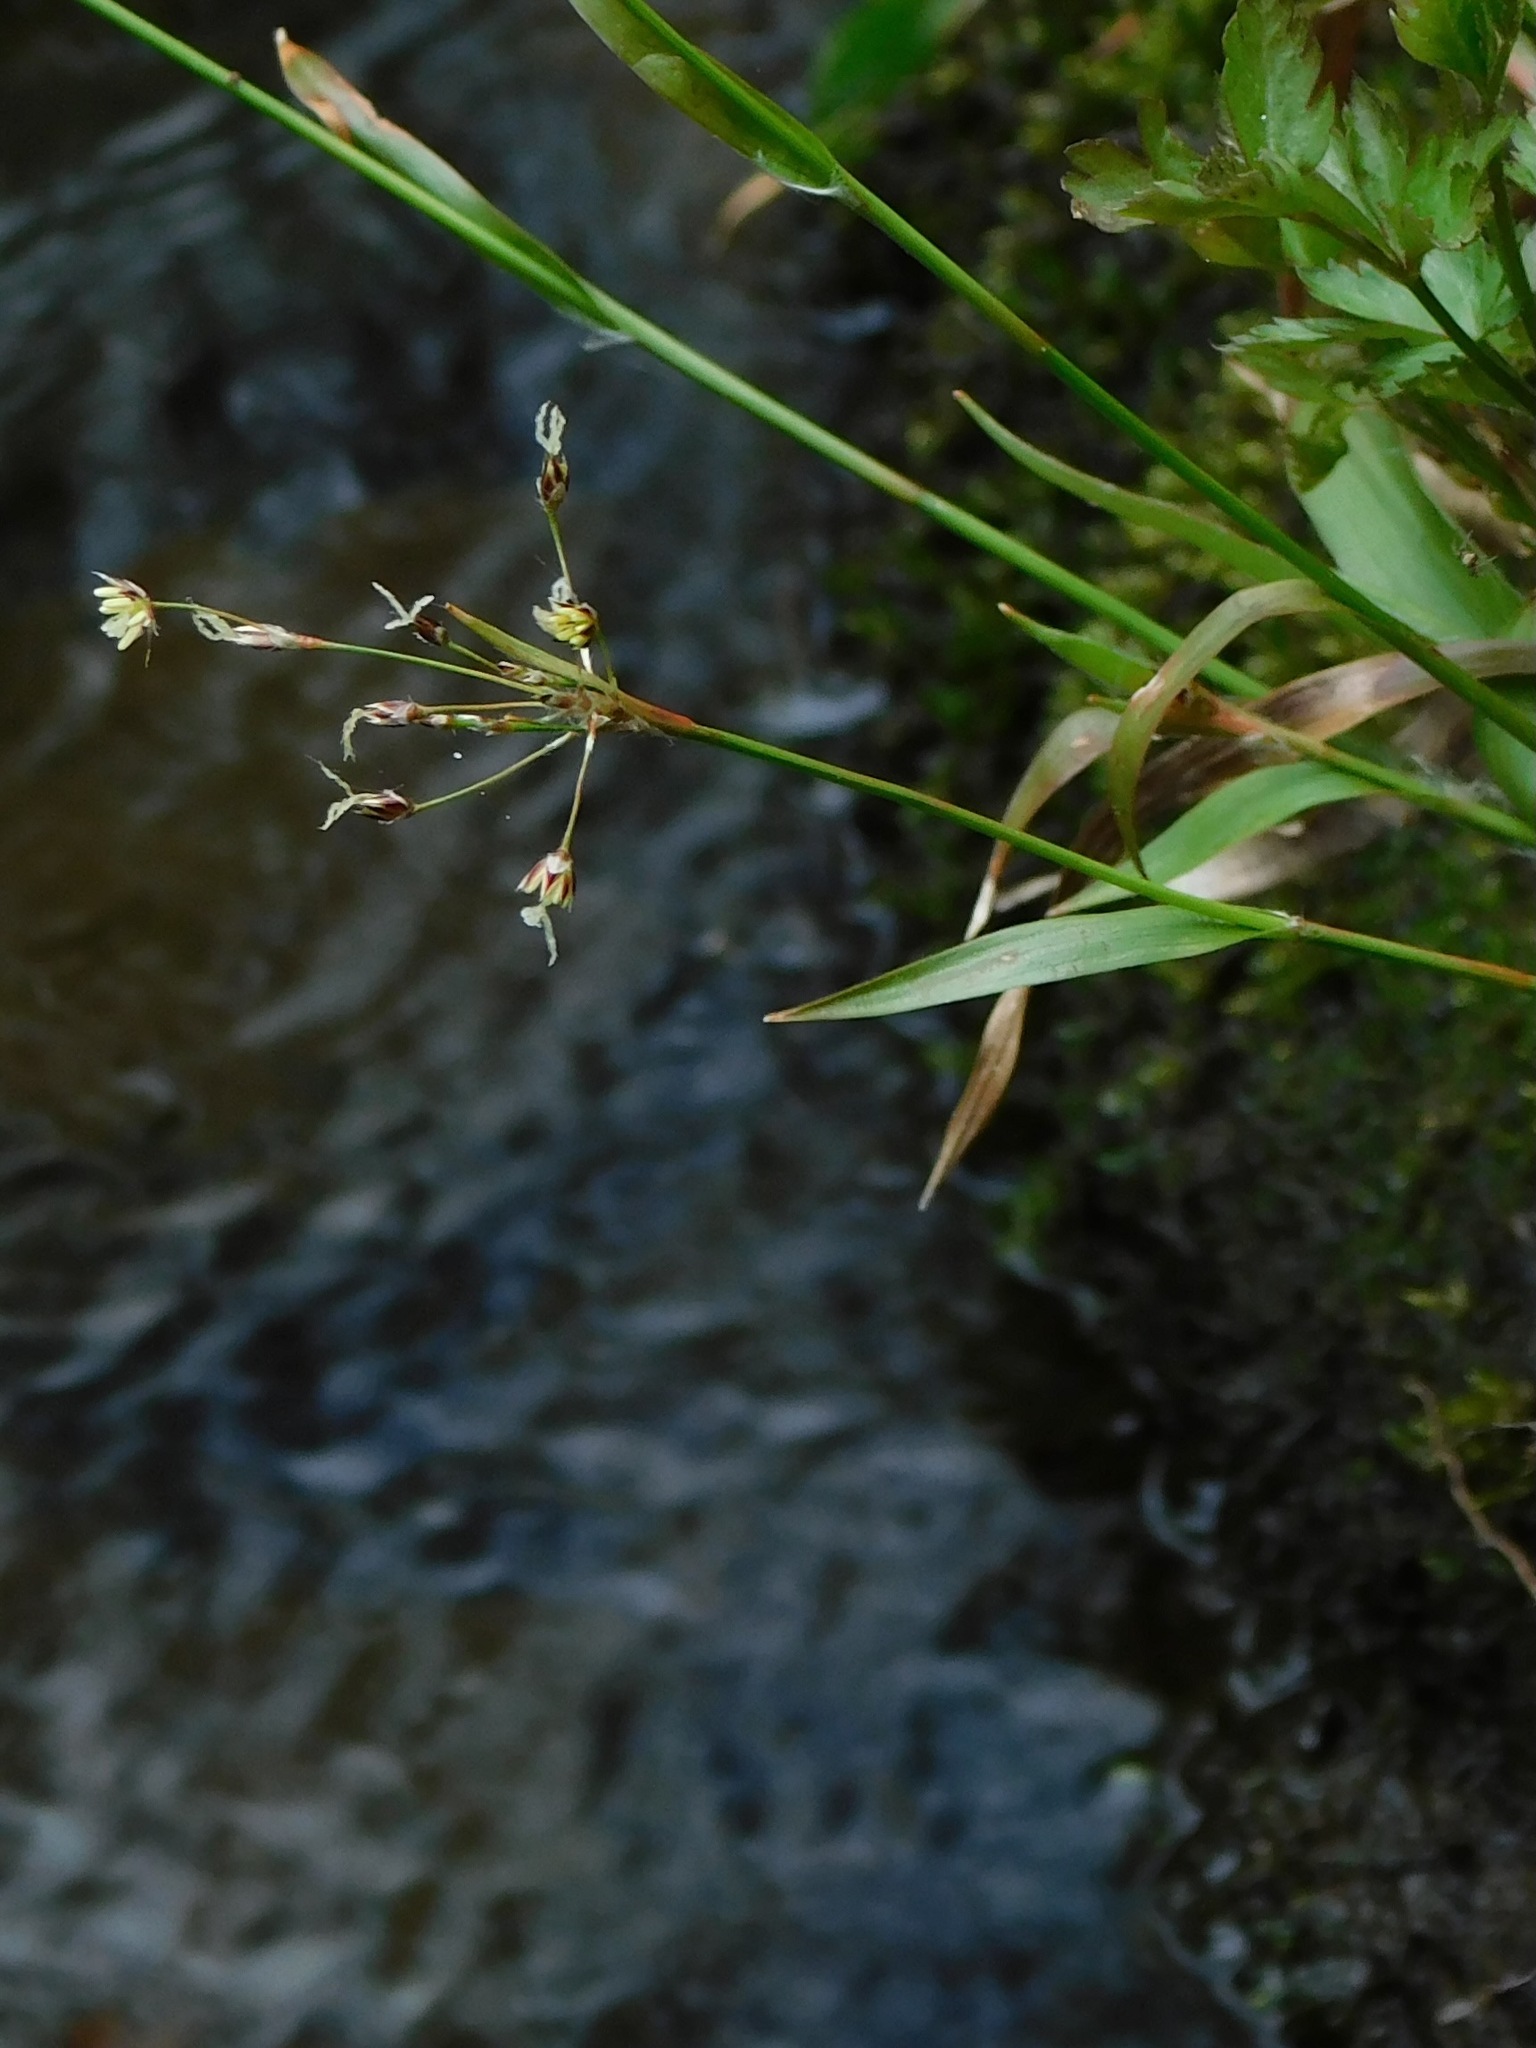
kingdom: Plantae
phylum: Tracheophyta
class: Liliopsida
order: Poales
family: Juncaceae
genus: Luzula
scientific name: Luzula acuminata
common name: Hairy woodrush
